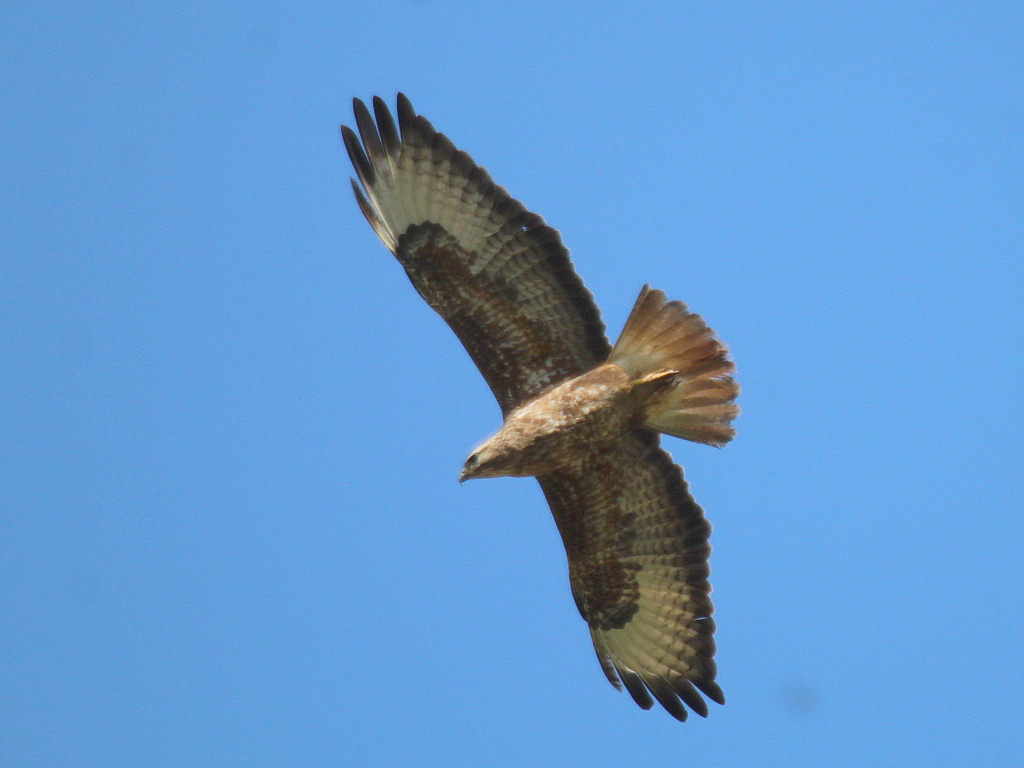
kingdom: Animalia
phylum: Chordata
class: Aves
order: Accipitriformes
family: Accipitridae
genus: Buteo
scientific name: Buteo buteo
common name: Common buzzard
